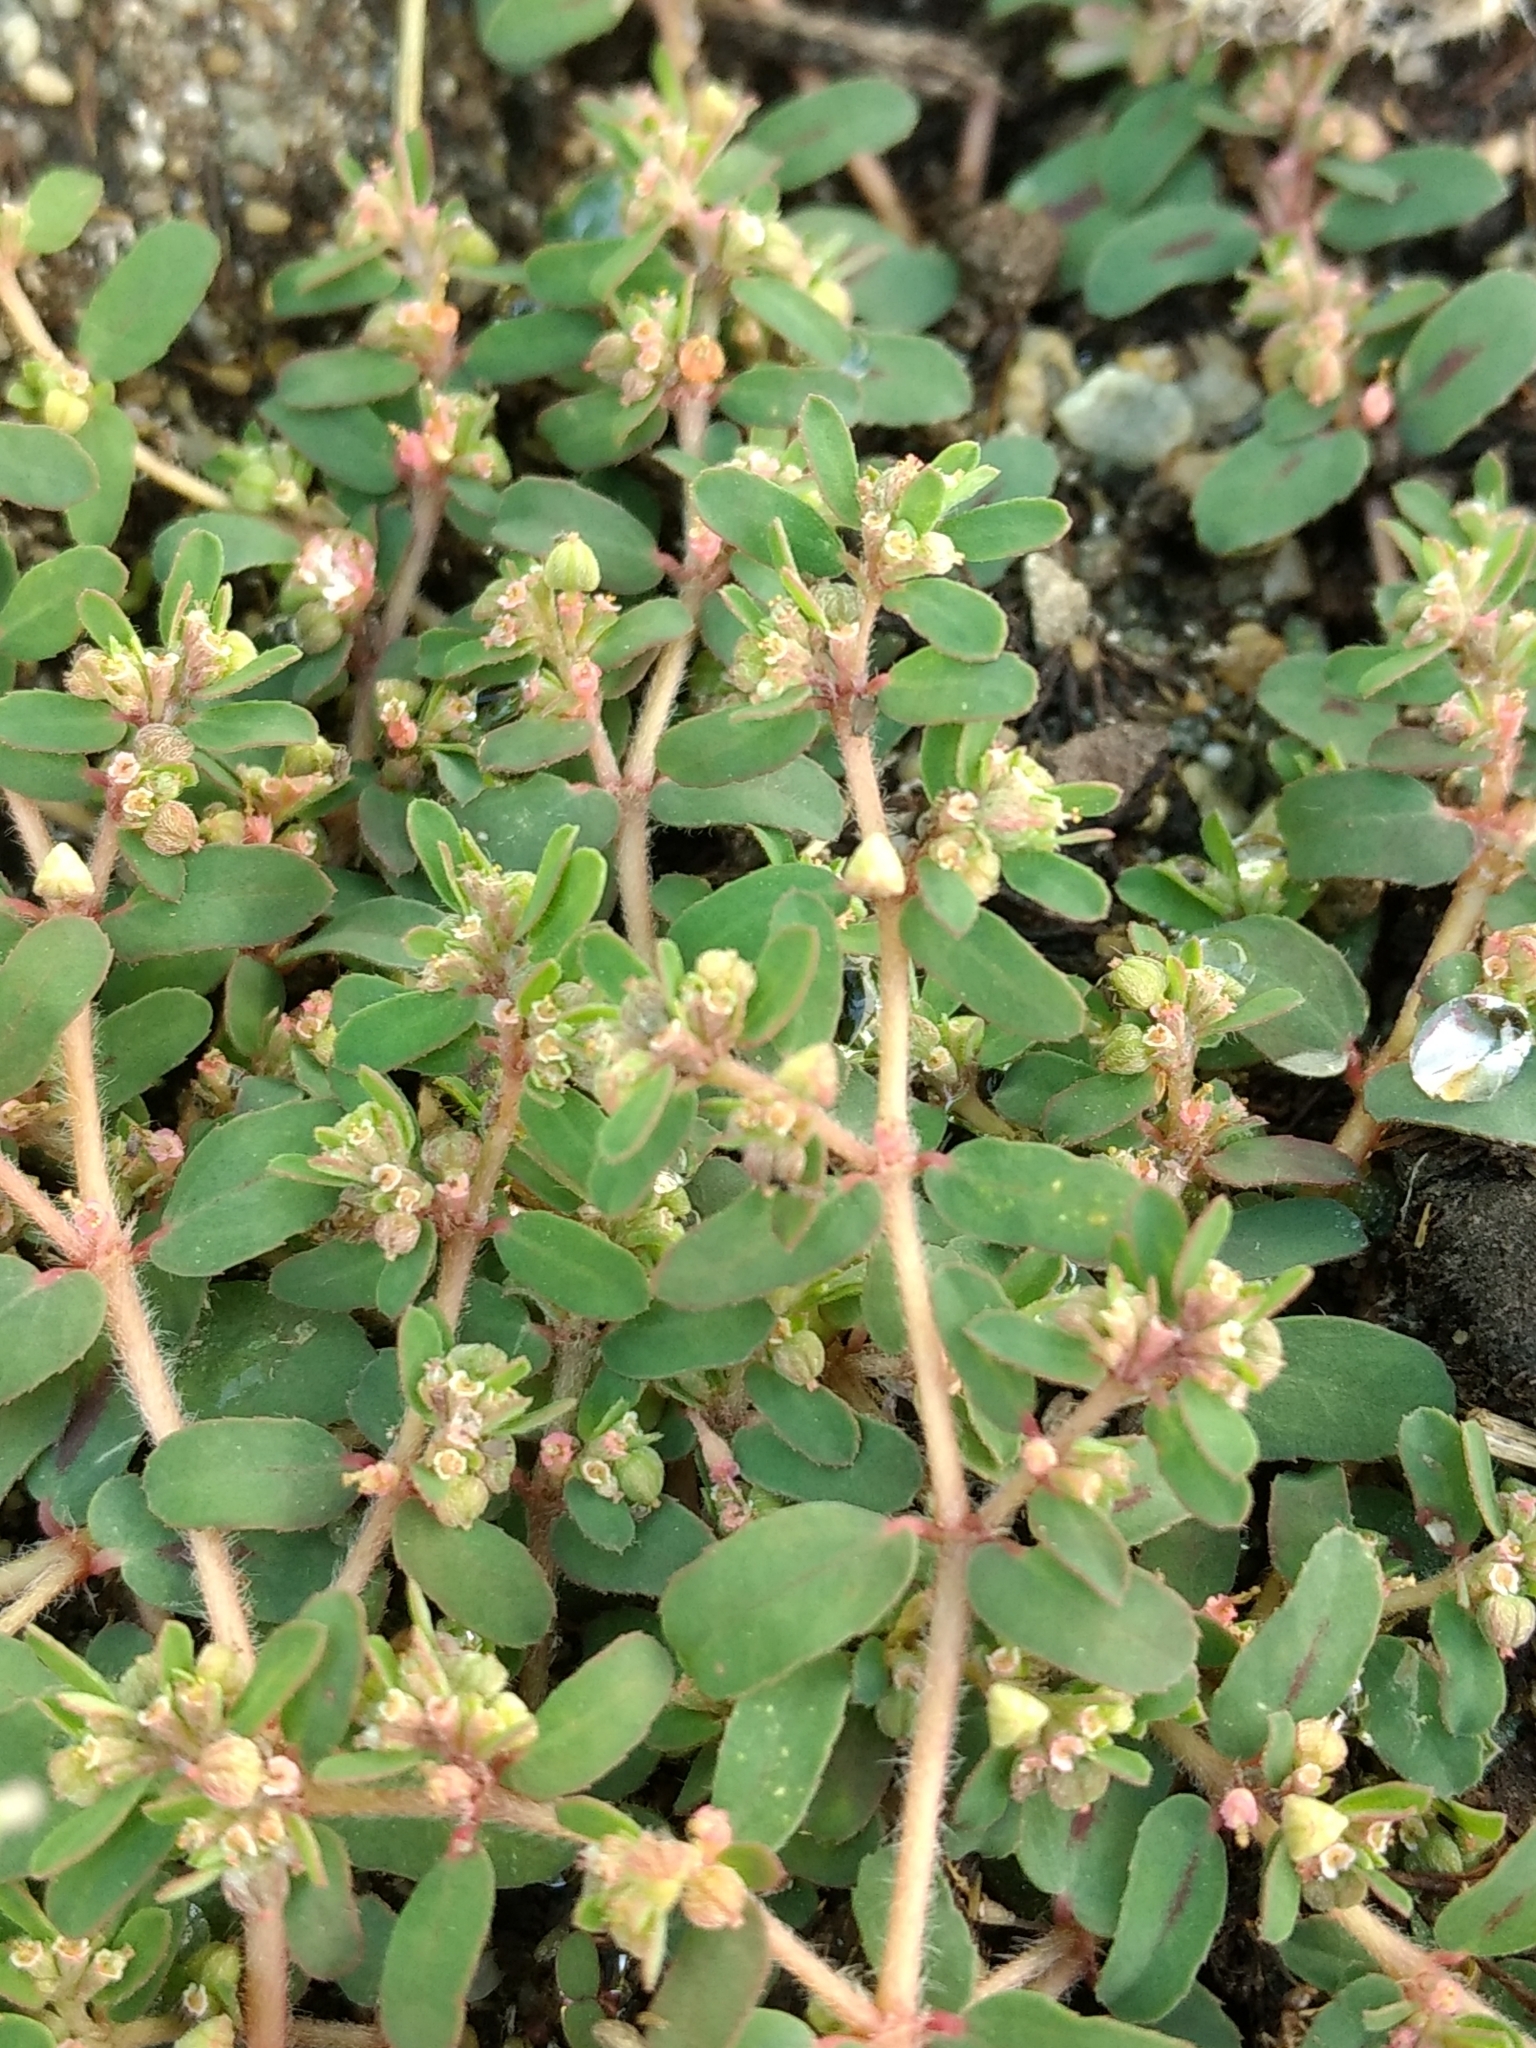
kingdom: Plantae
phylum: Tracheophyta
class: Magnoliopsida
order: Malpighiales
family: Euphorbiaceae
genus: Euphorbia
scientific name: Euphorbia maculata
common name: Spotted spurge
